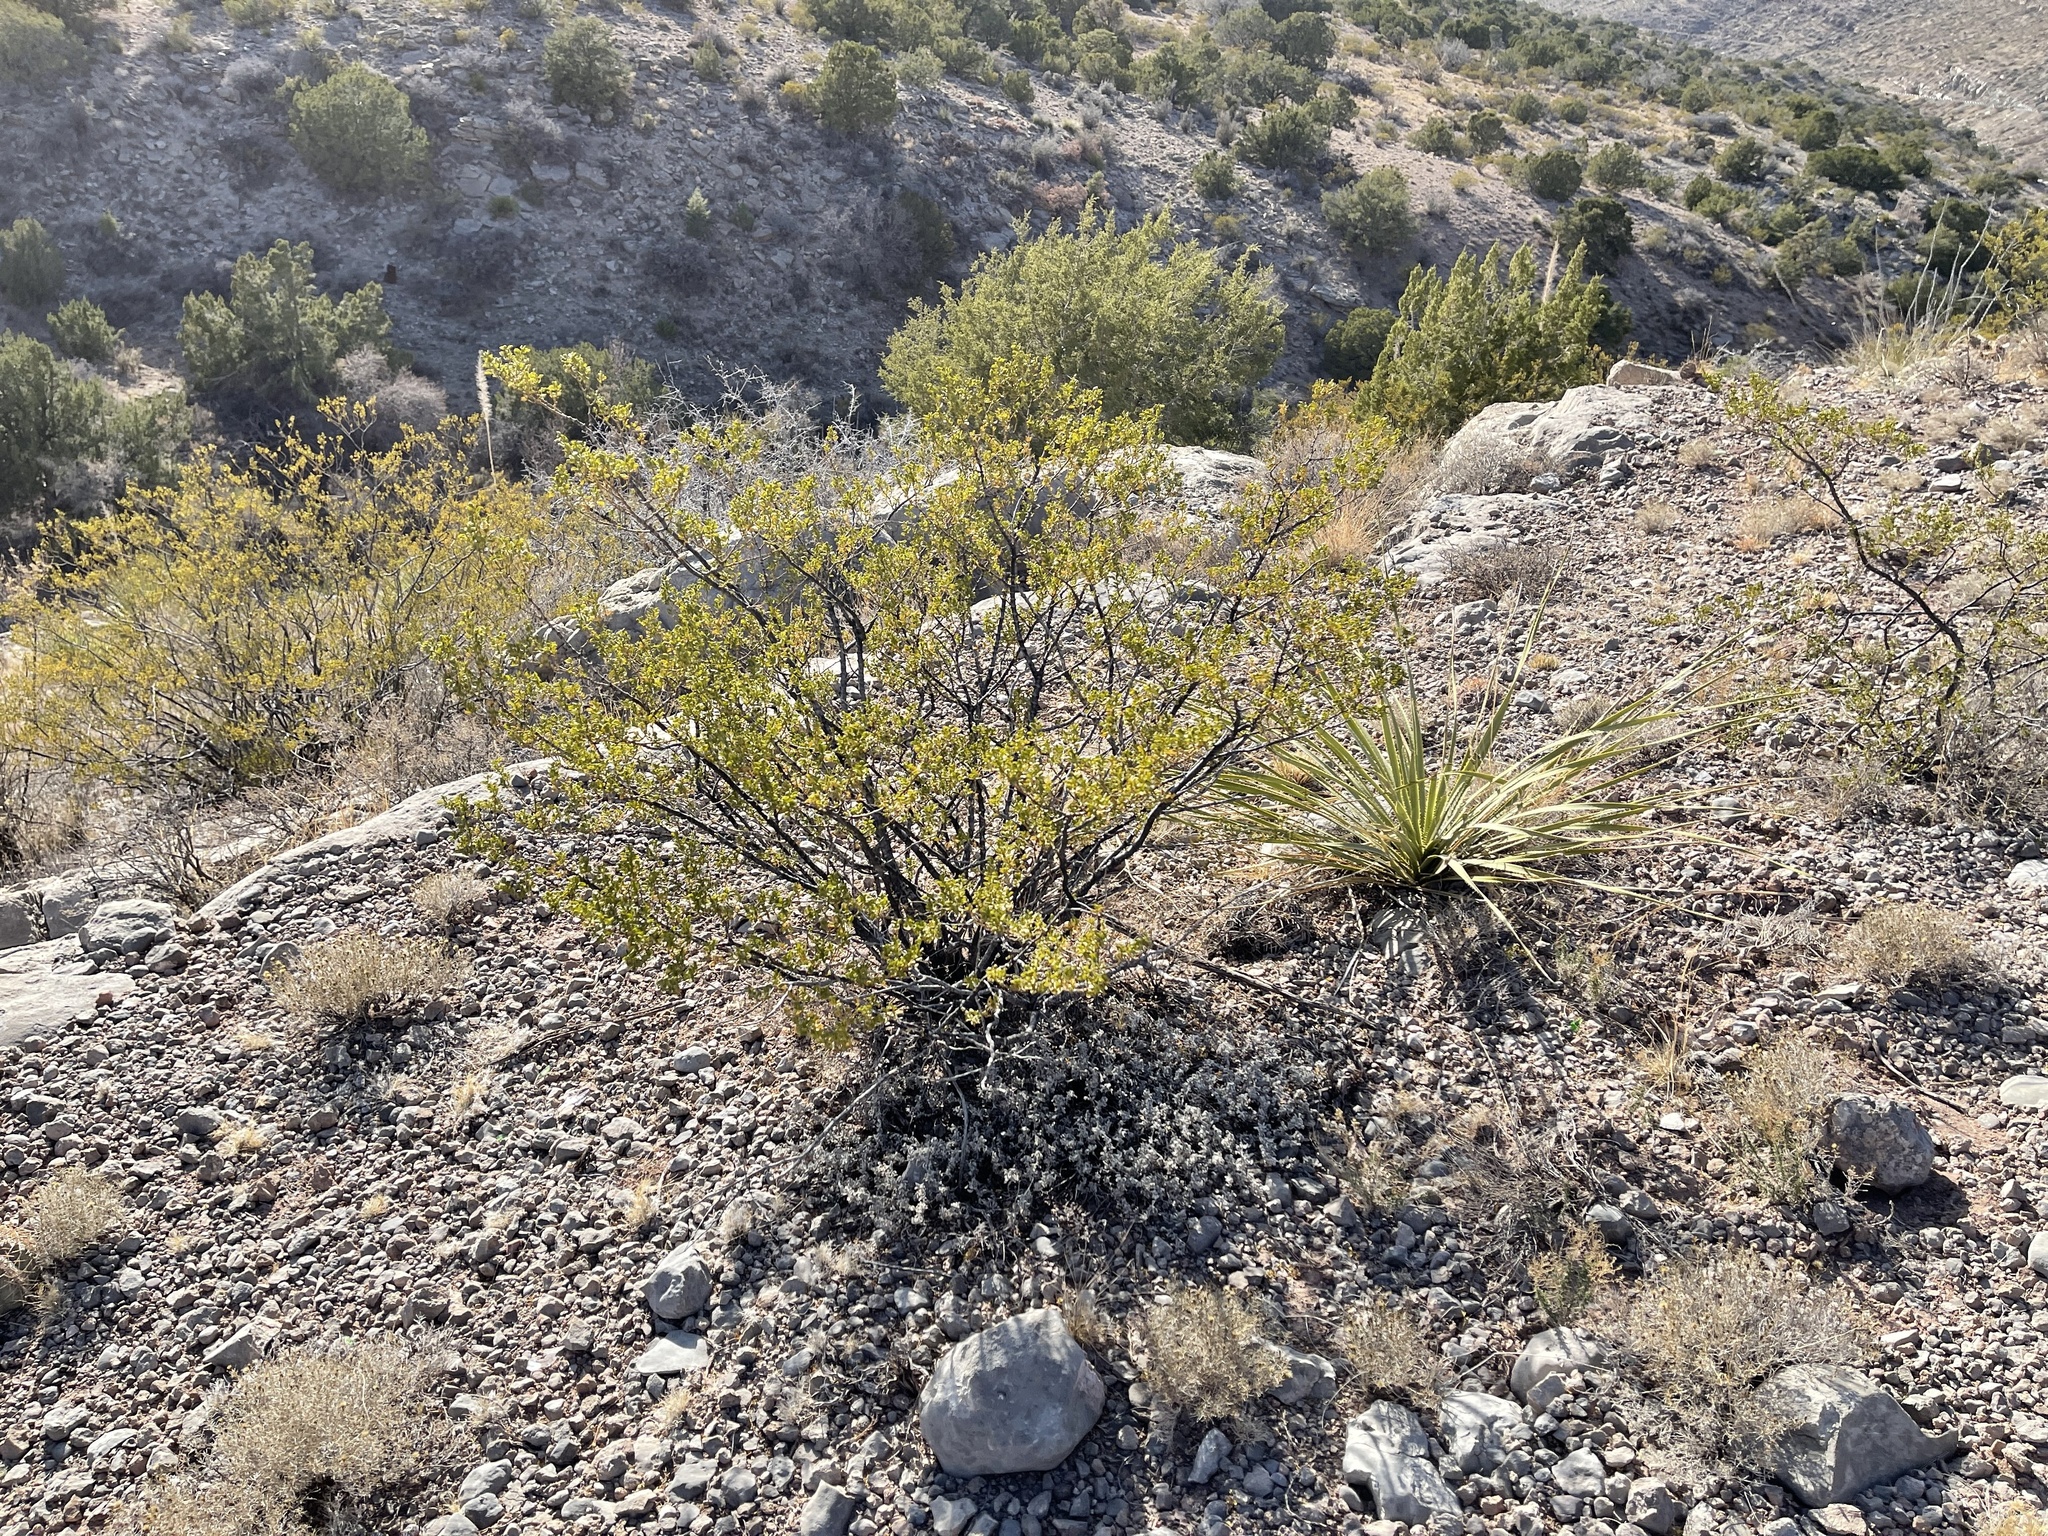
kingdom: Plantae
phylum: Tracheophyta
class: Magnoliopsida
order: Zygophyllales
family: Zygophyllaceae
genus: Larrea
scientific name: Larrea tridentata
